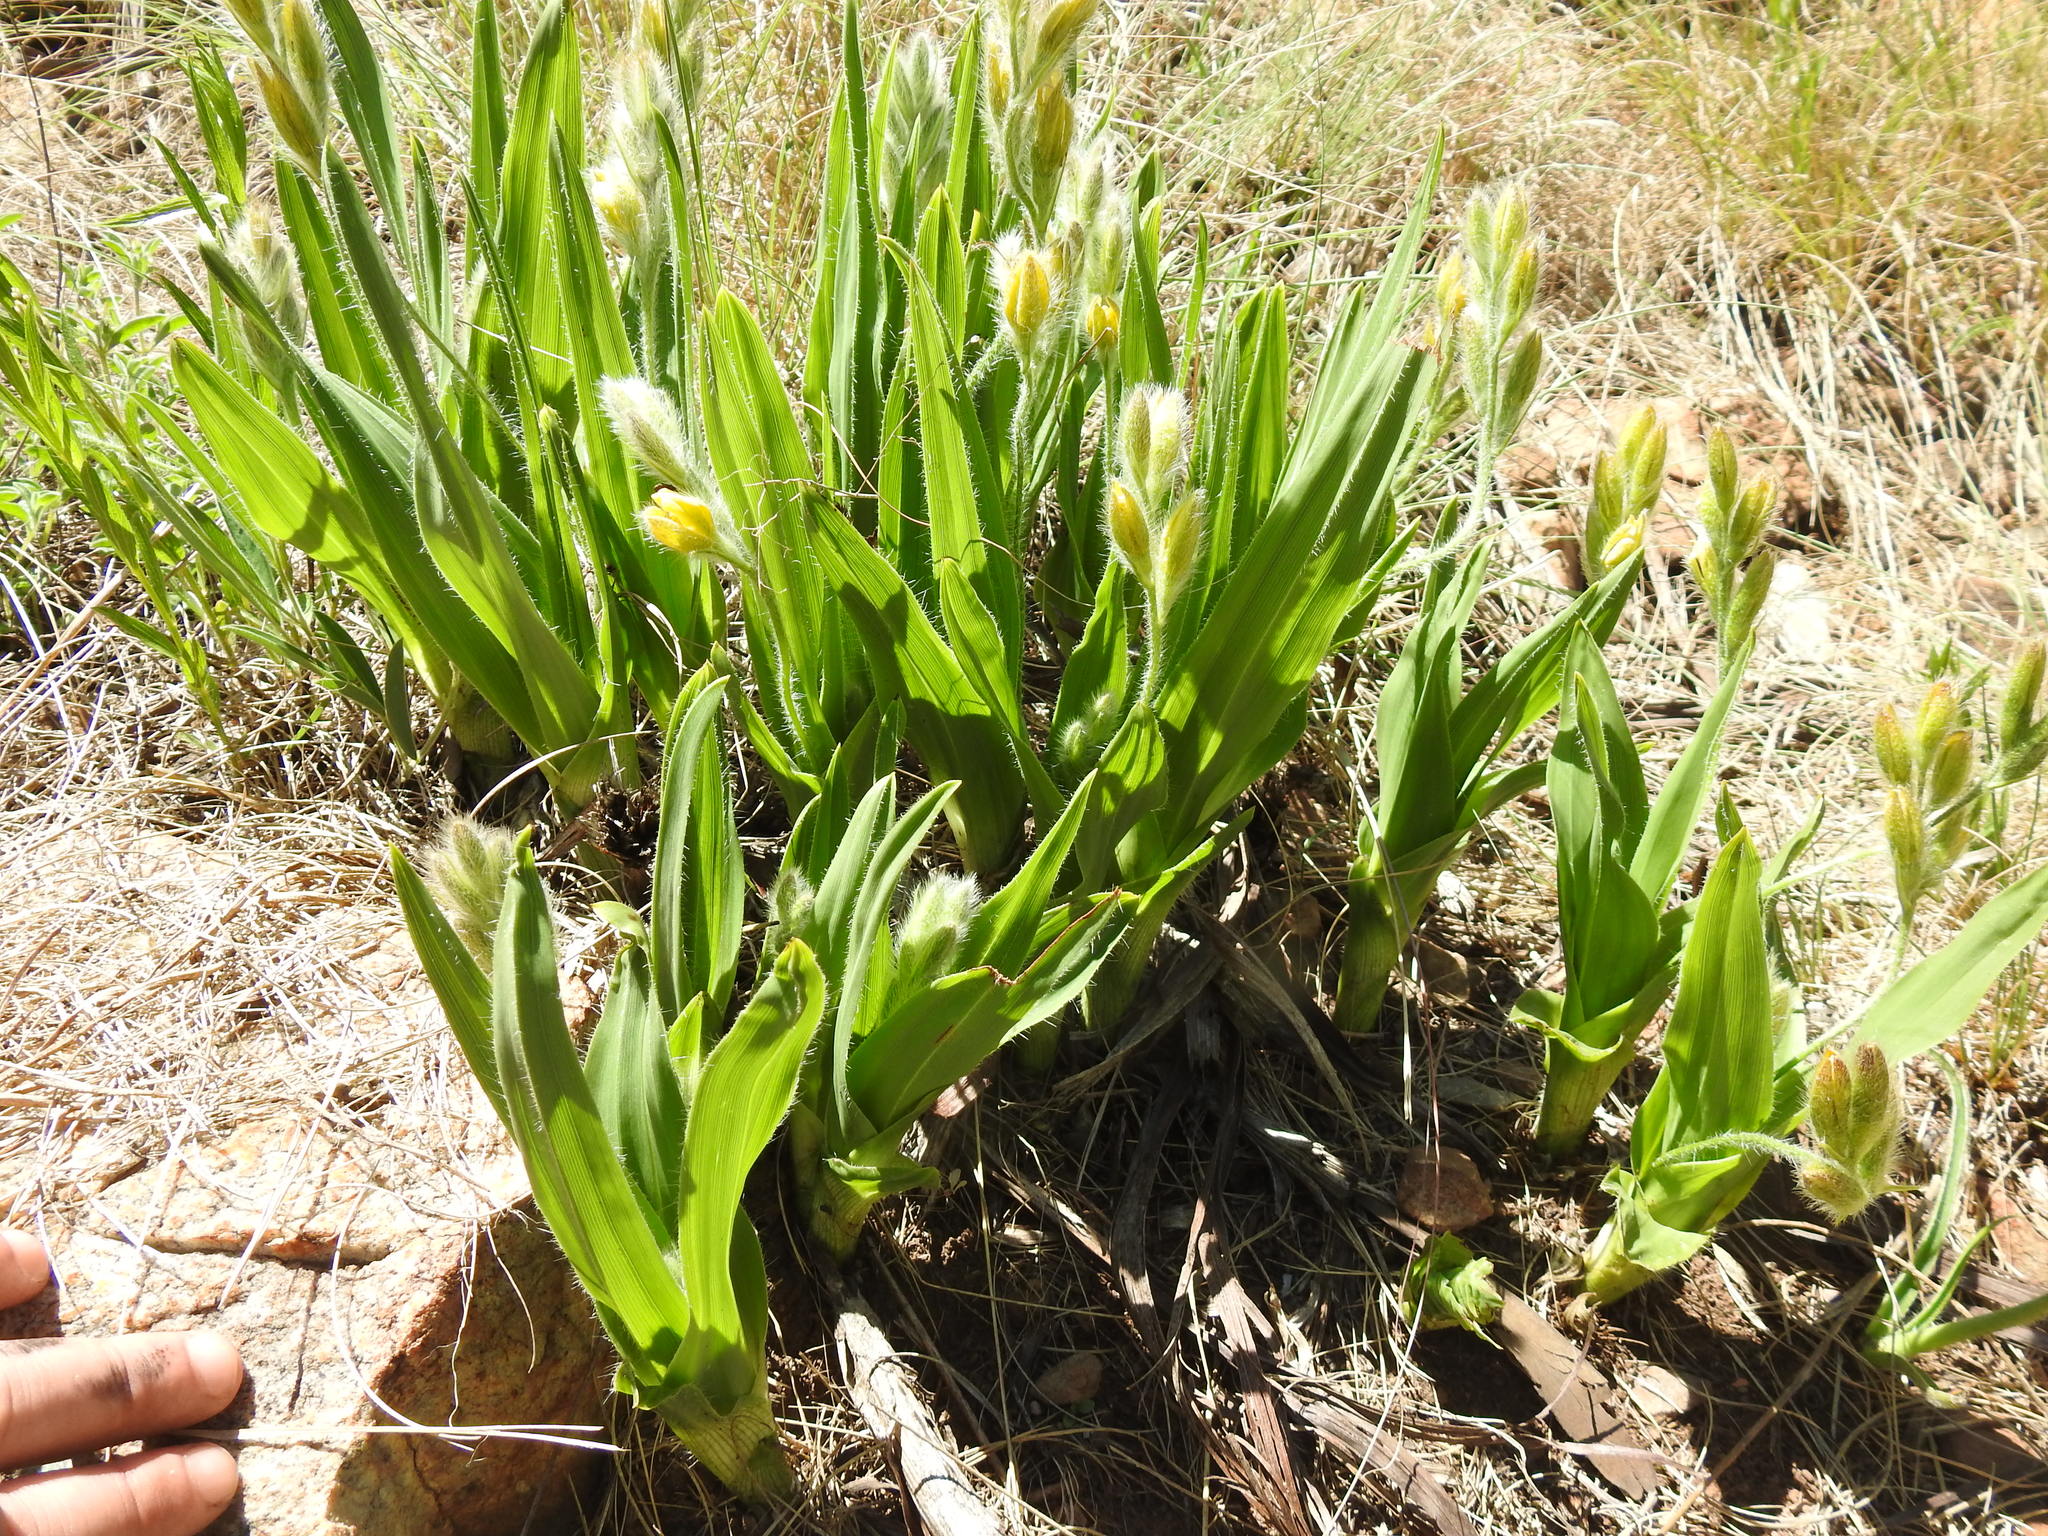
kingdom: Plantae
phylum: Tracheophyta
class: Liliopsida
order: Asparagales
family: Hypoxidaceae
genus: Hypoxis
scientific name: Hypoxis galpinii
